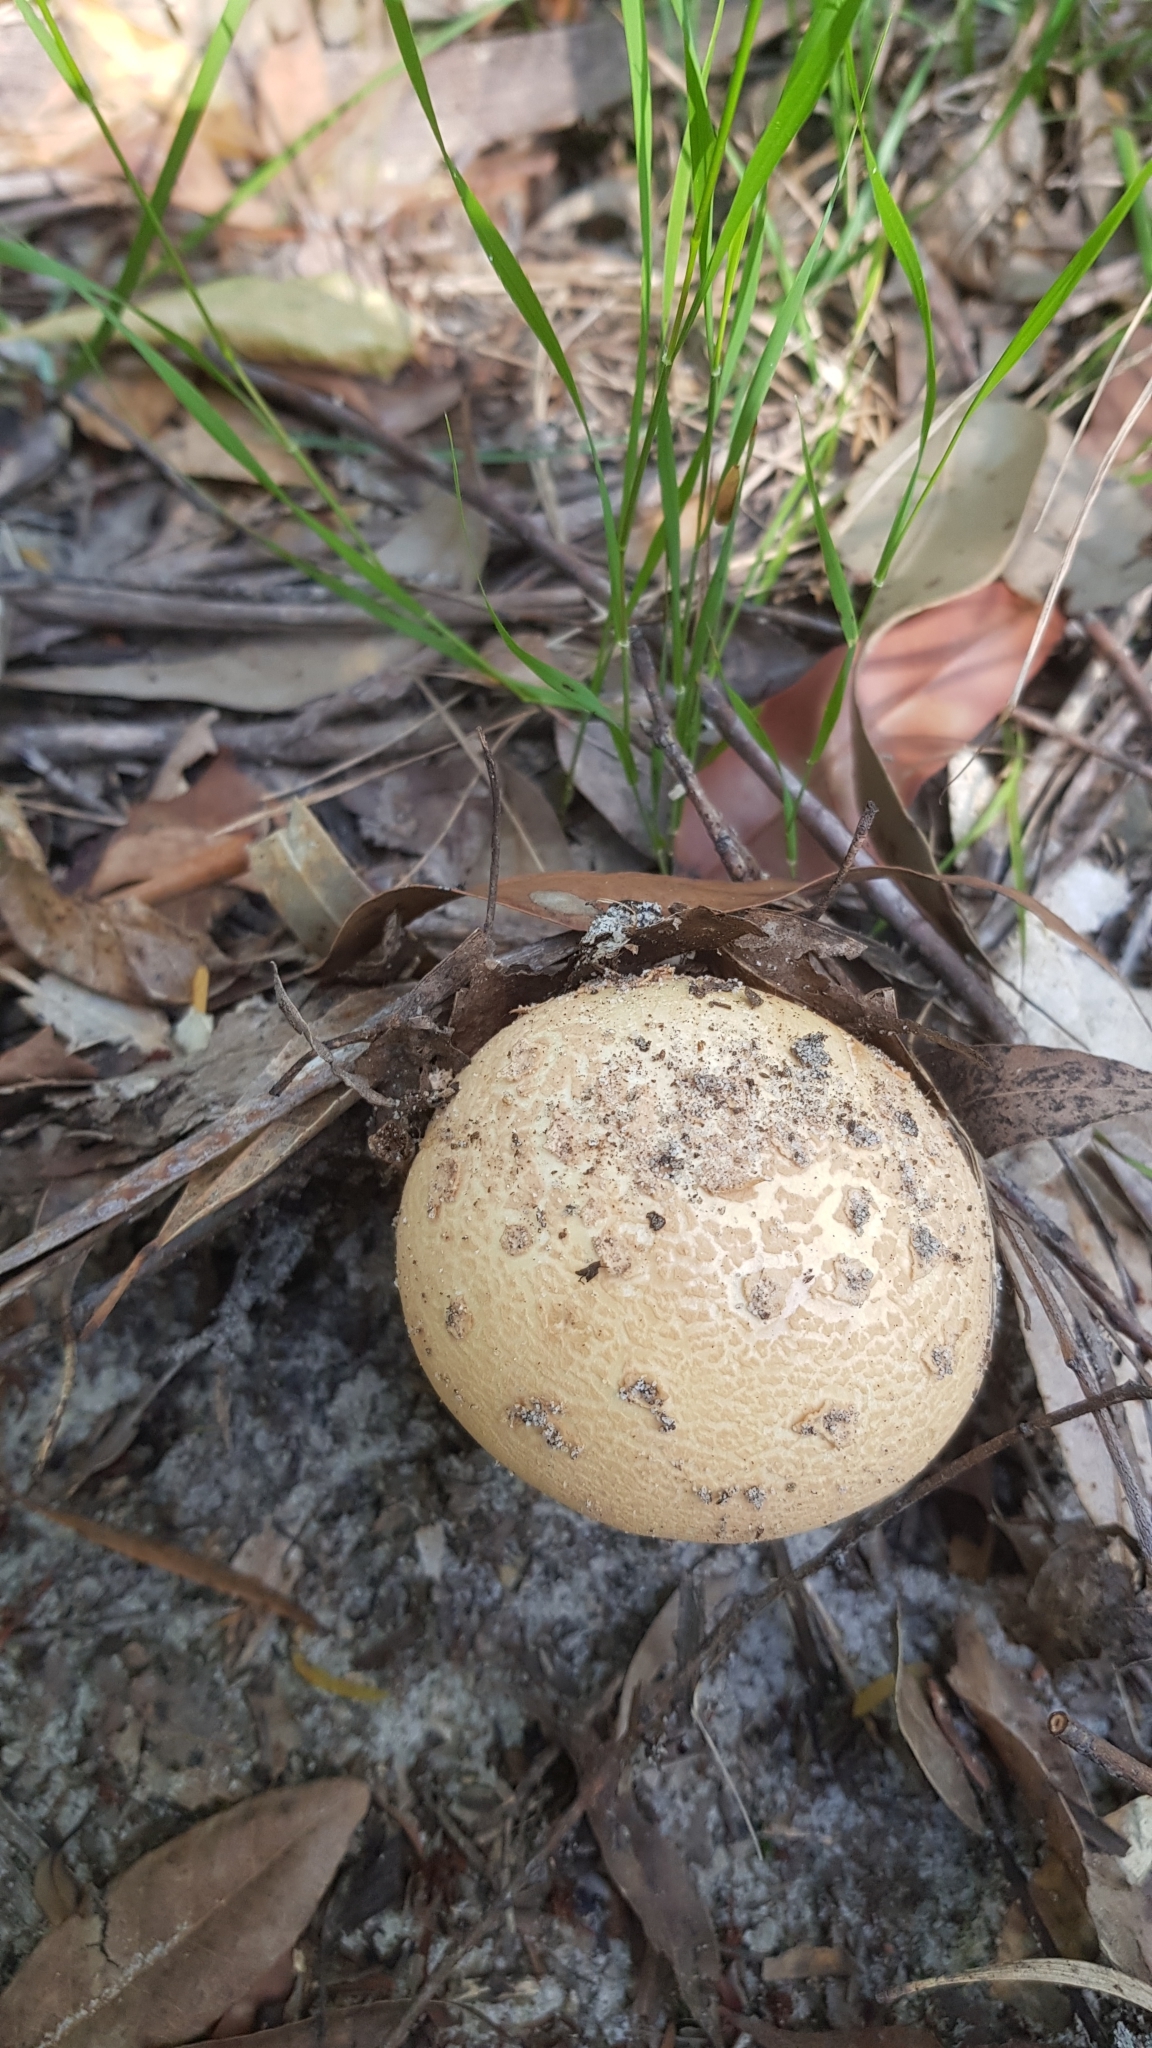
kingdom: Fungi
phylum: Basidiomycota
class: Agaricomycetes
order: Agaricales
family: Amanitaceae
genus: Amanita
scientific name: Amanita ochrophylla
